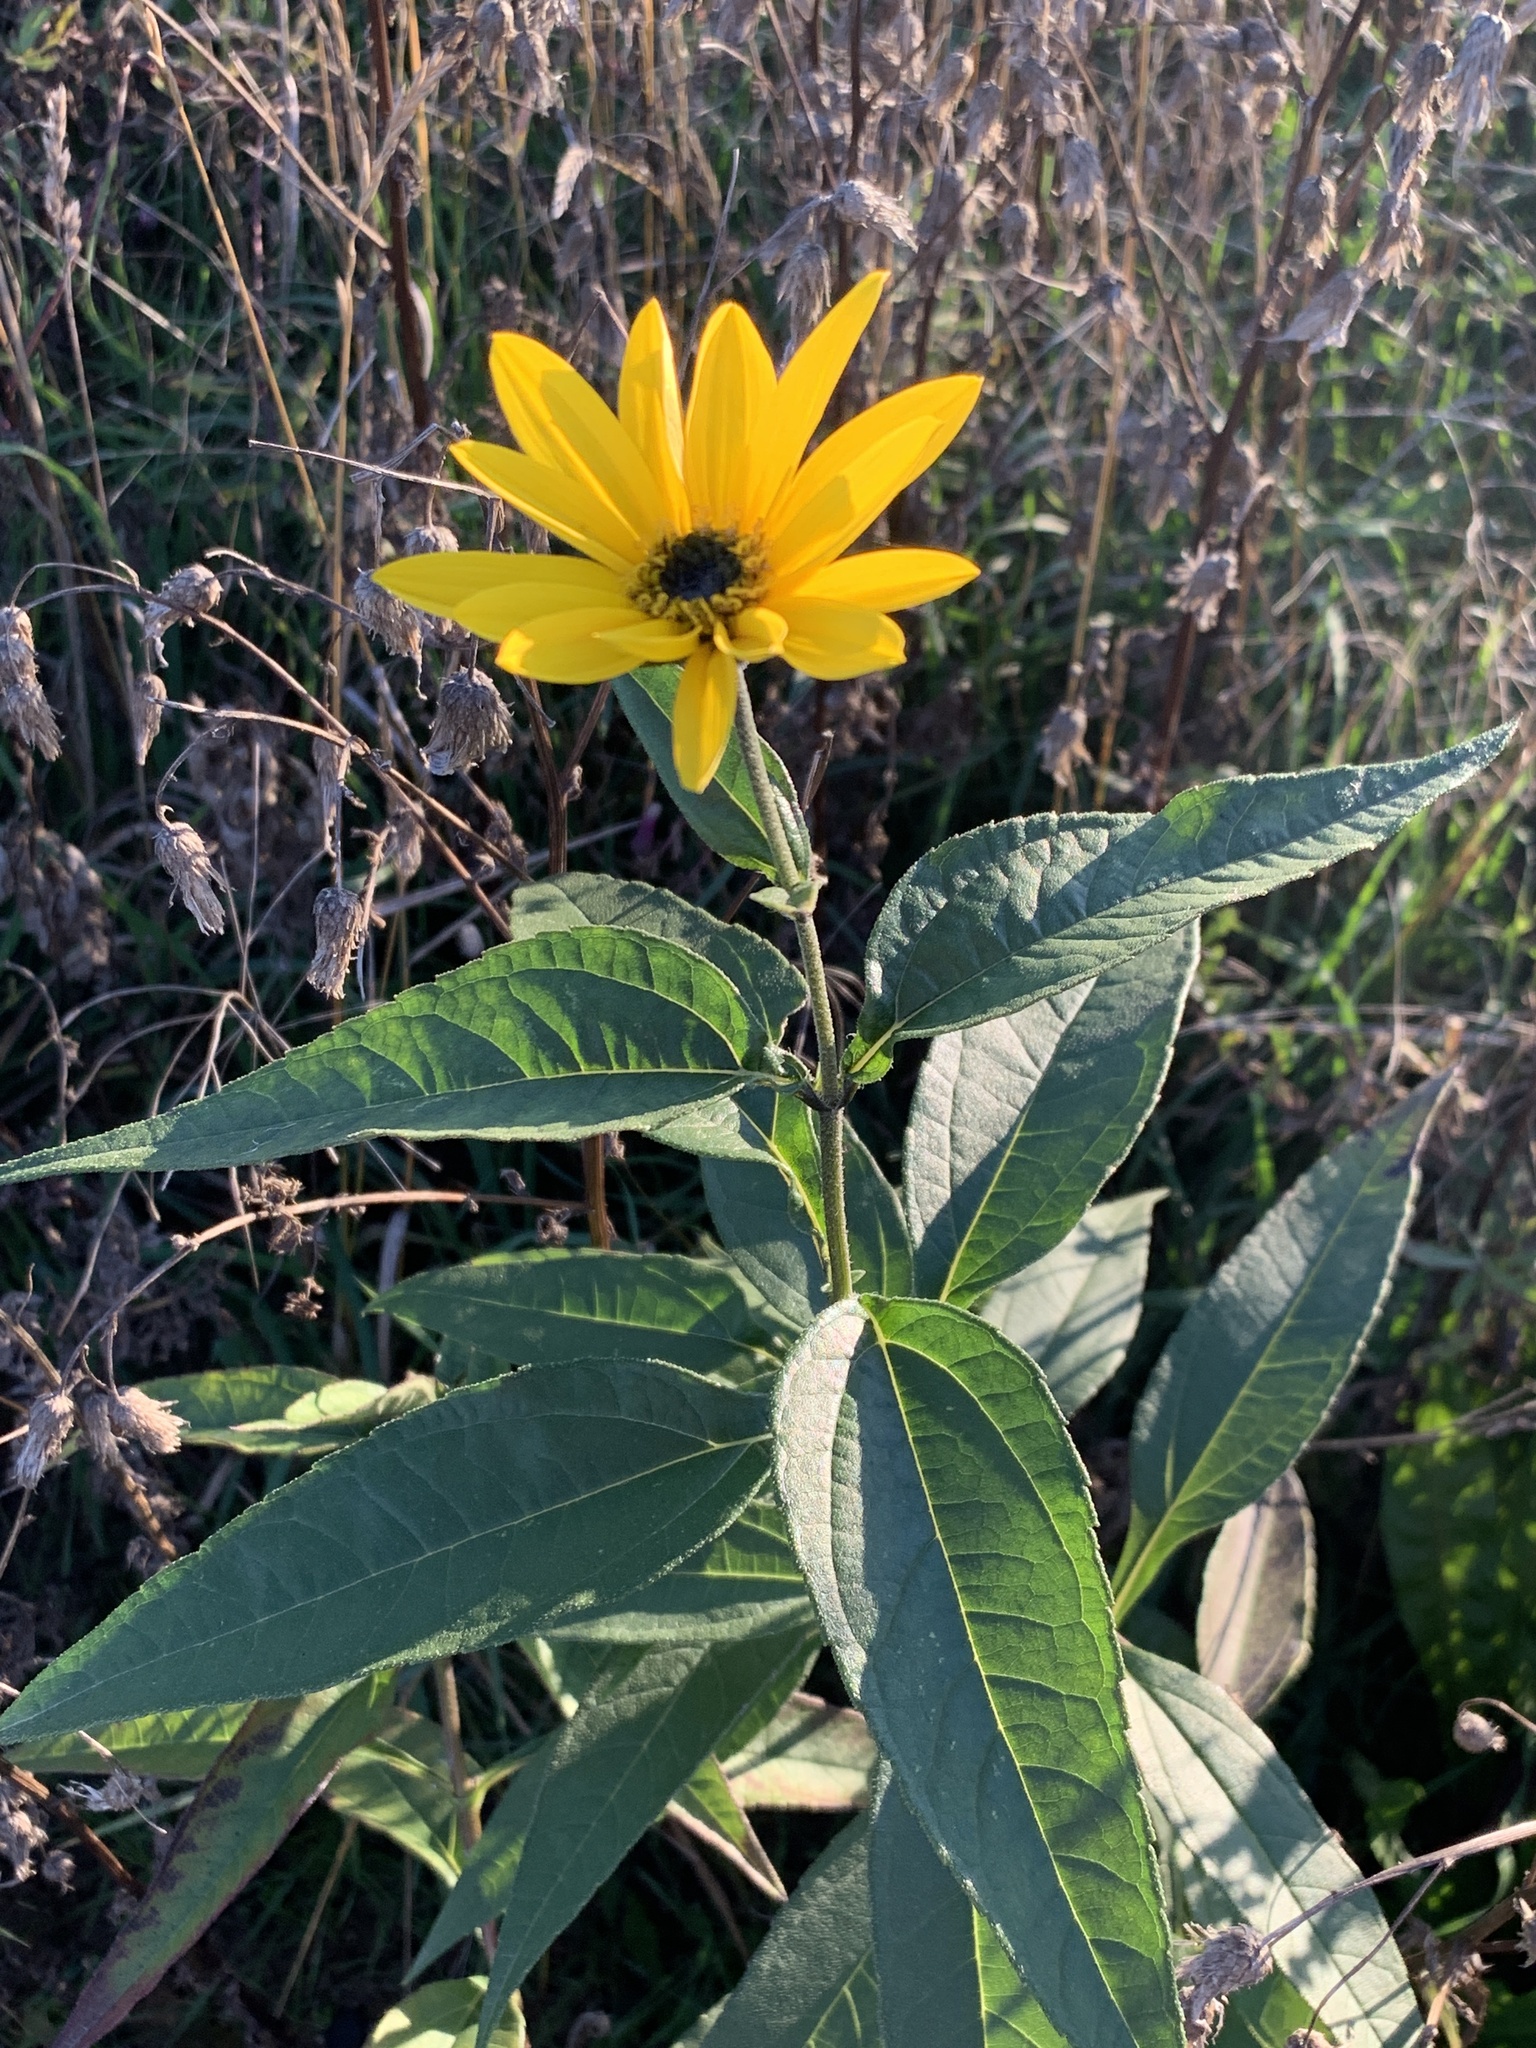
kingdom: Plantae
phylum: Tracheophyta
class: Magnoliopsida
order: Asterales
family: Asteraceae
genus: Helianthus
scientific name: Helianthus tuberosus
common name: Jerusalem artichoke
